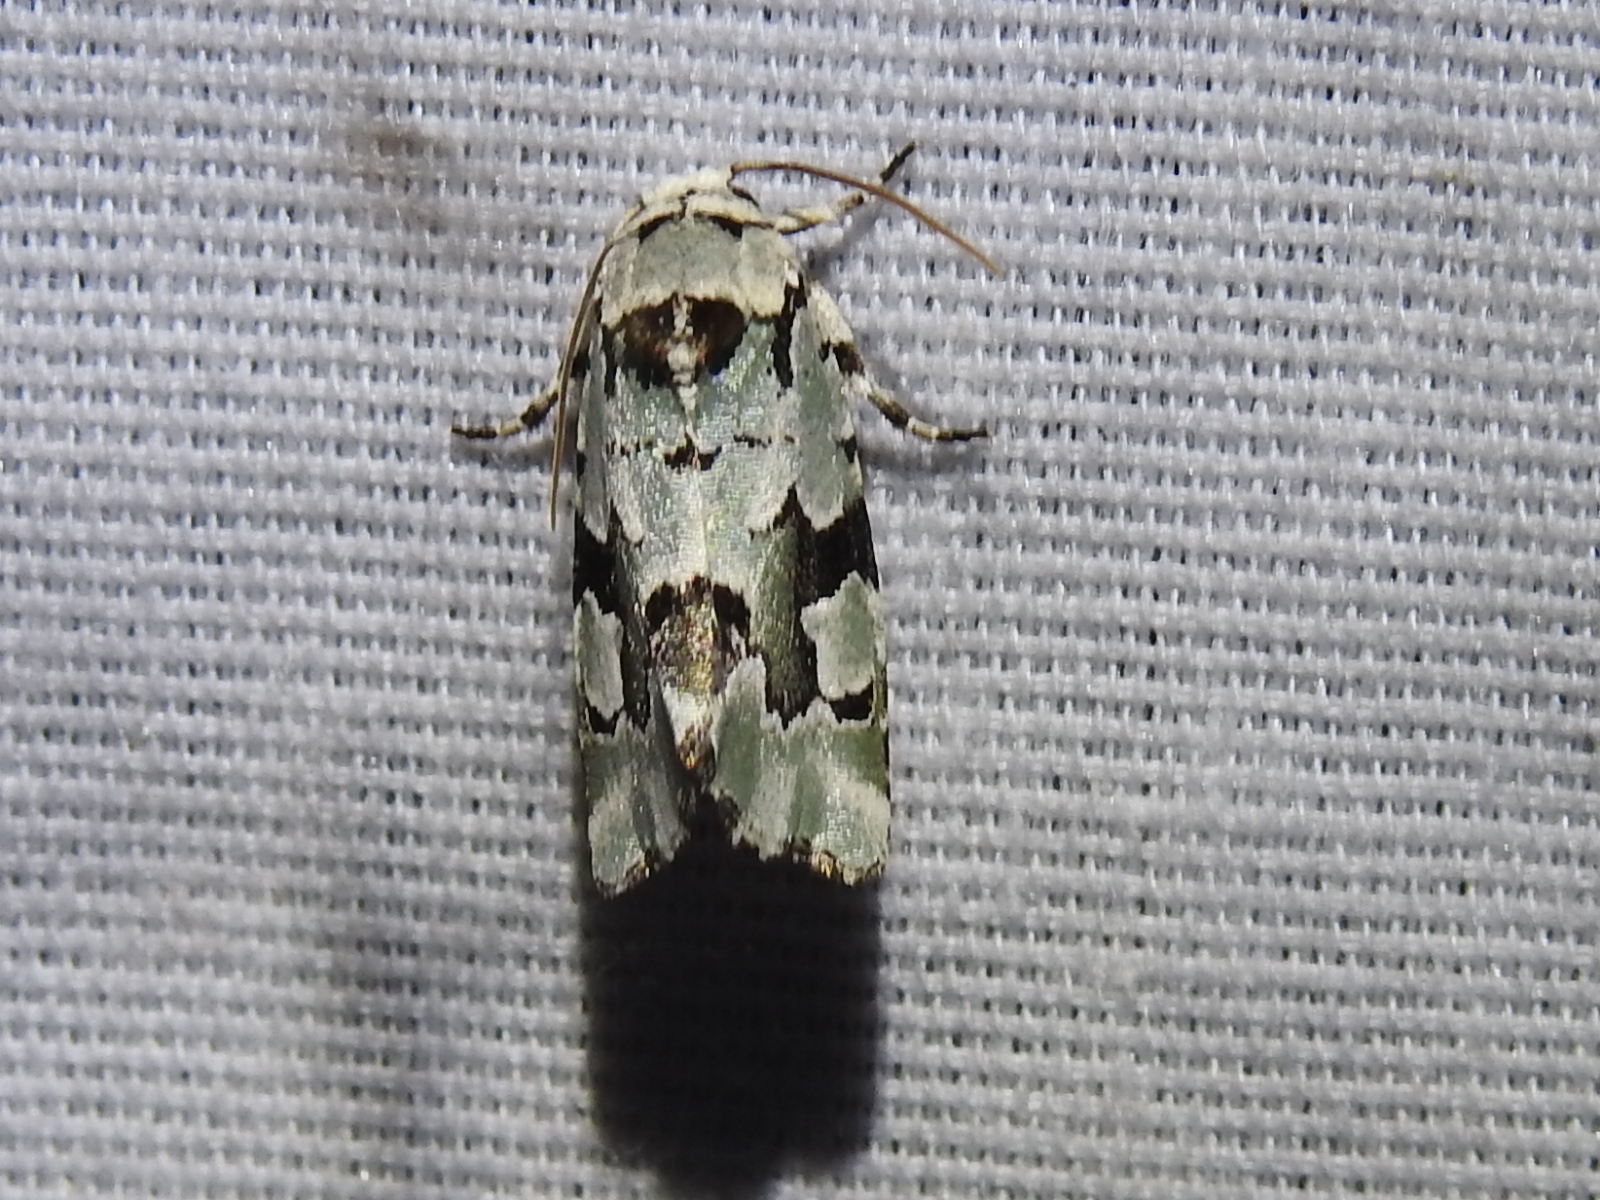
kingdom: Animalia
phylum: Arthropoda
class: Insecta
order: Lepidoptera
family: Noctuidae
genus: Emarginea
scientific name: Emarginea percara
